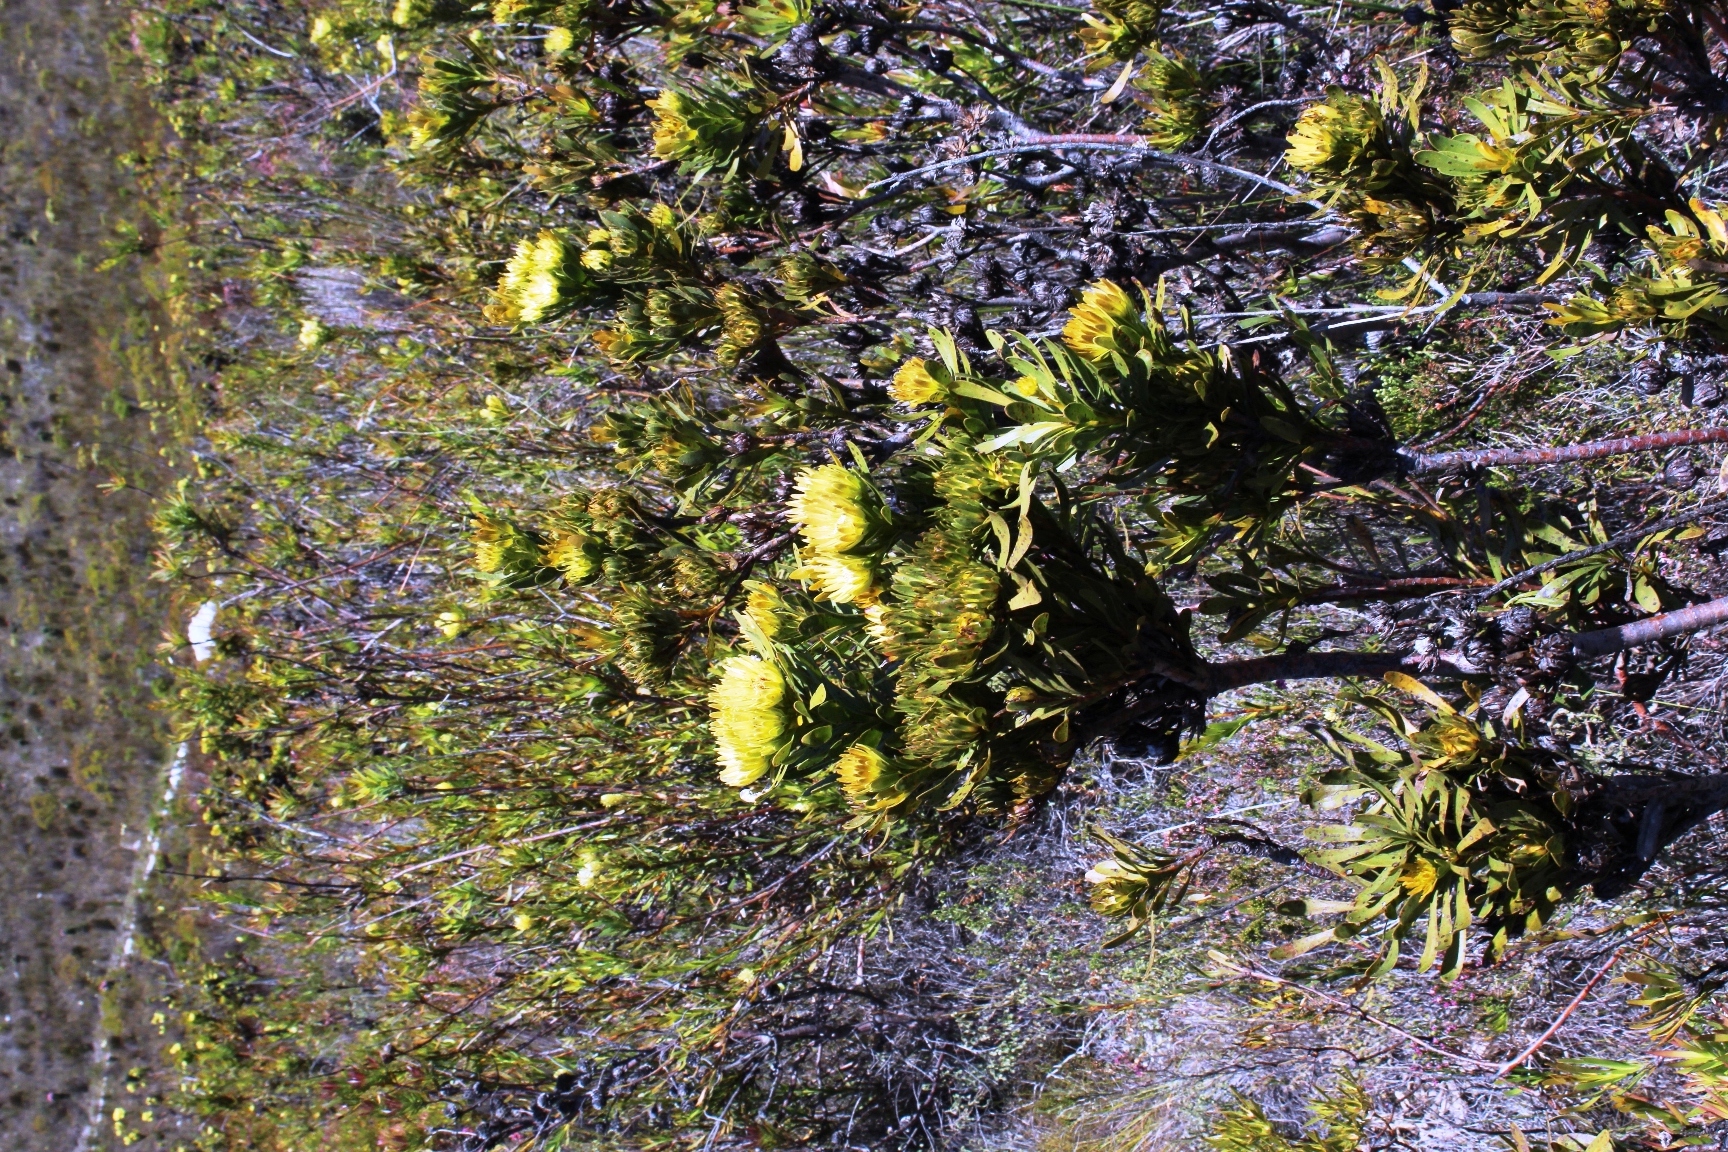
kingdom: Plantae
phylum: Tracheophyta
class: Magnoliopsida
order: Proteales
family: Proteaceae
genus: Aulax
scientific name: Aulax umbellata
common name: Broad-leaf featherbush
